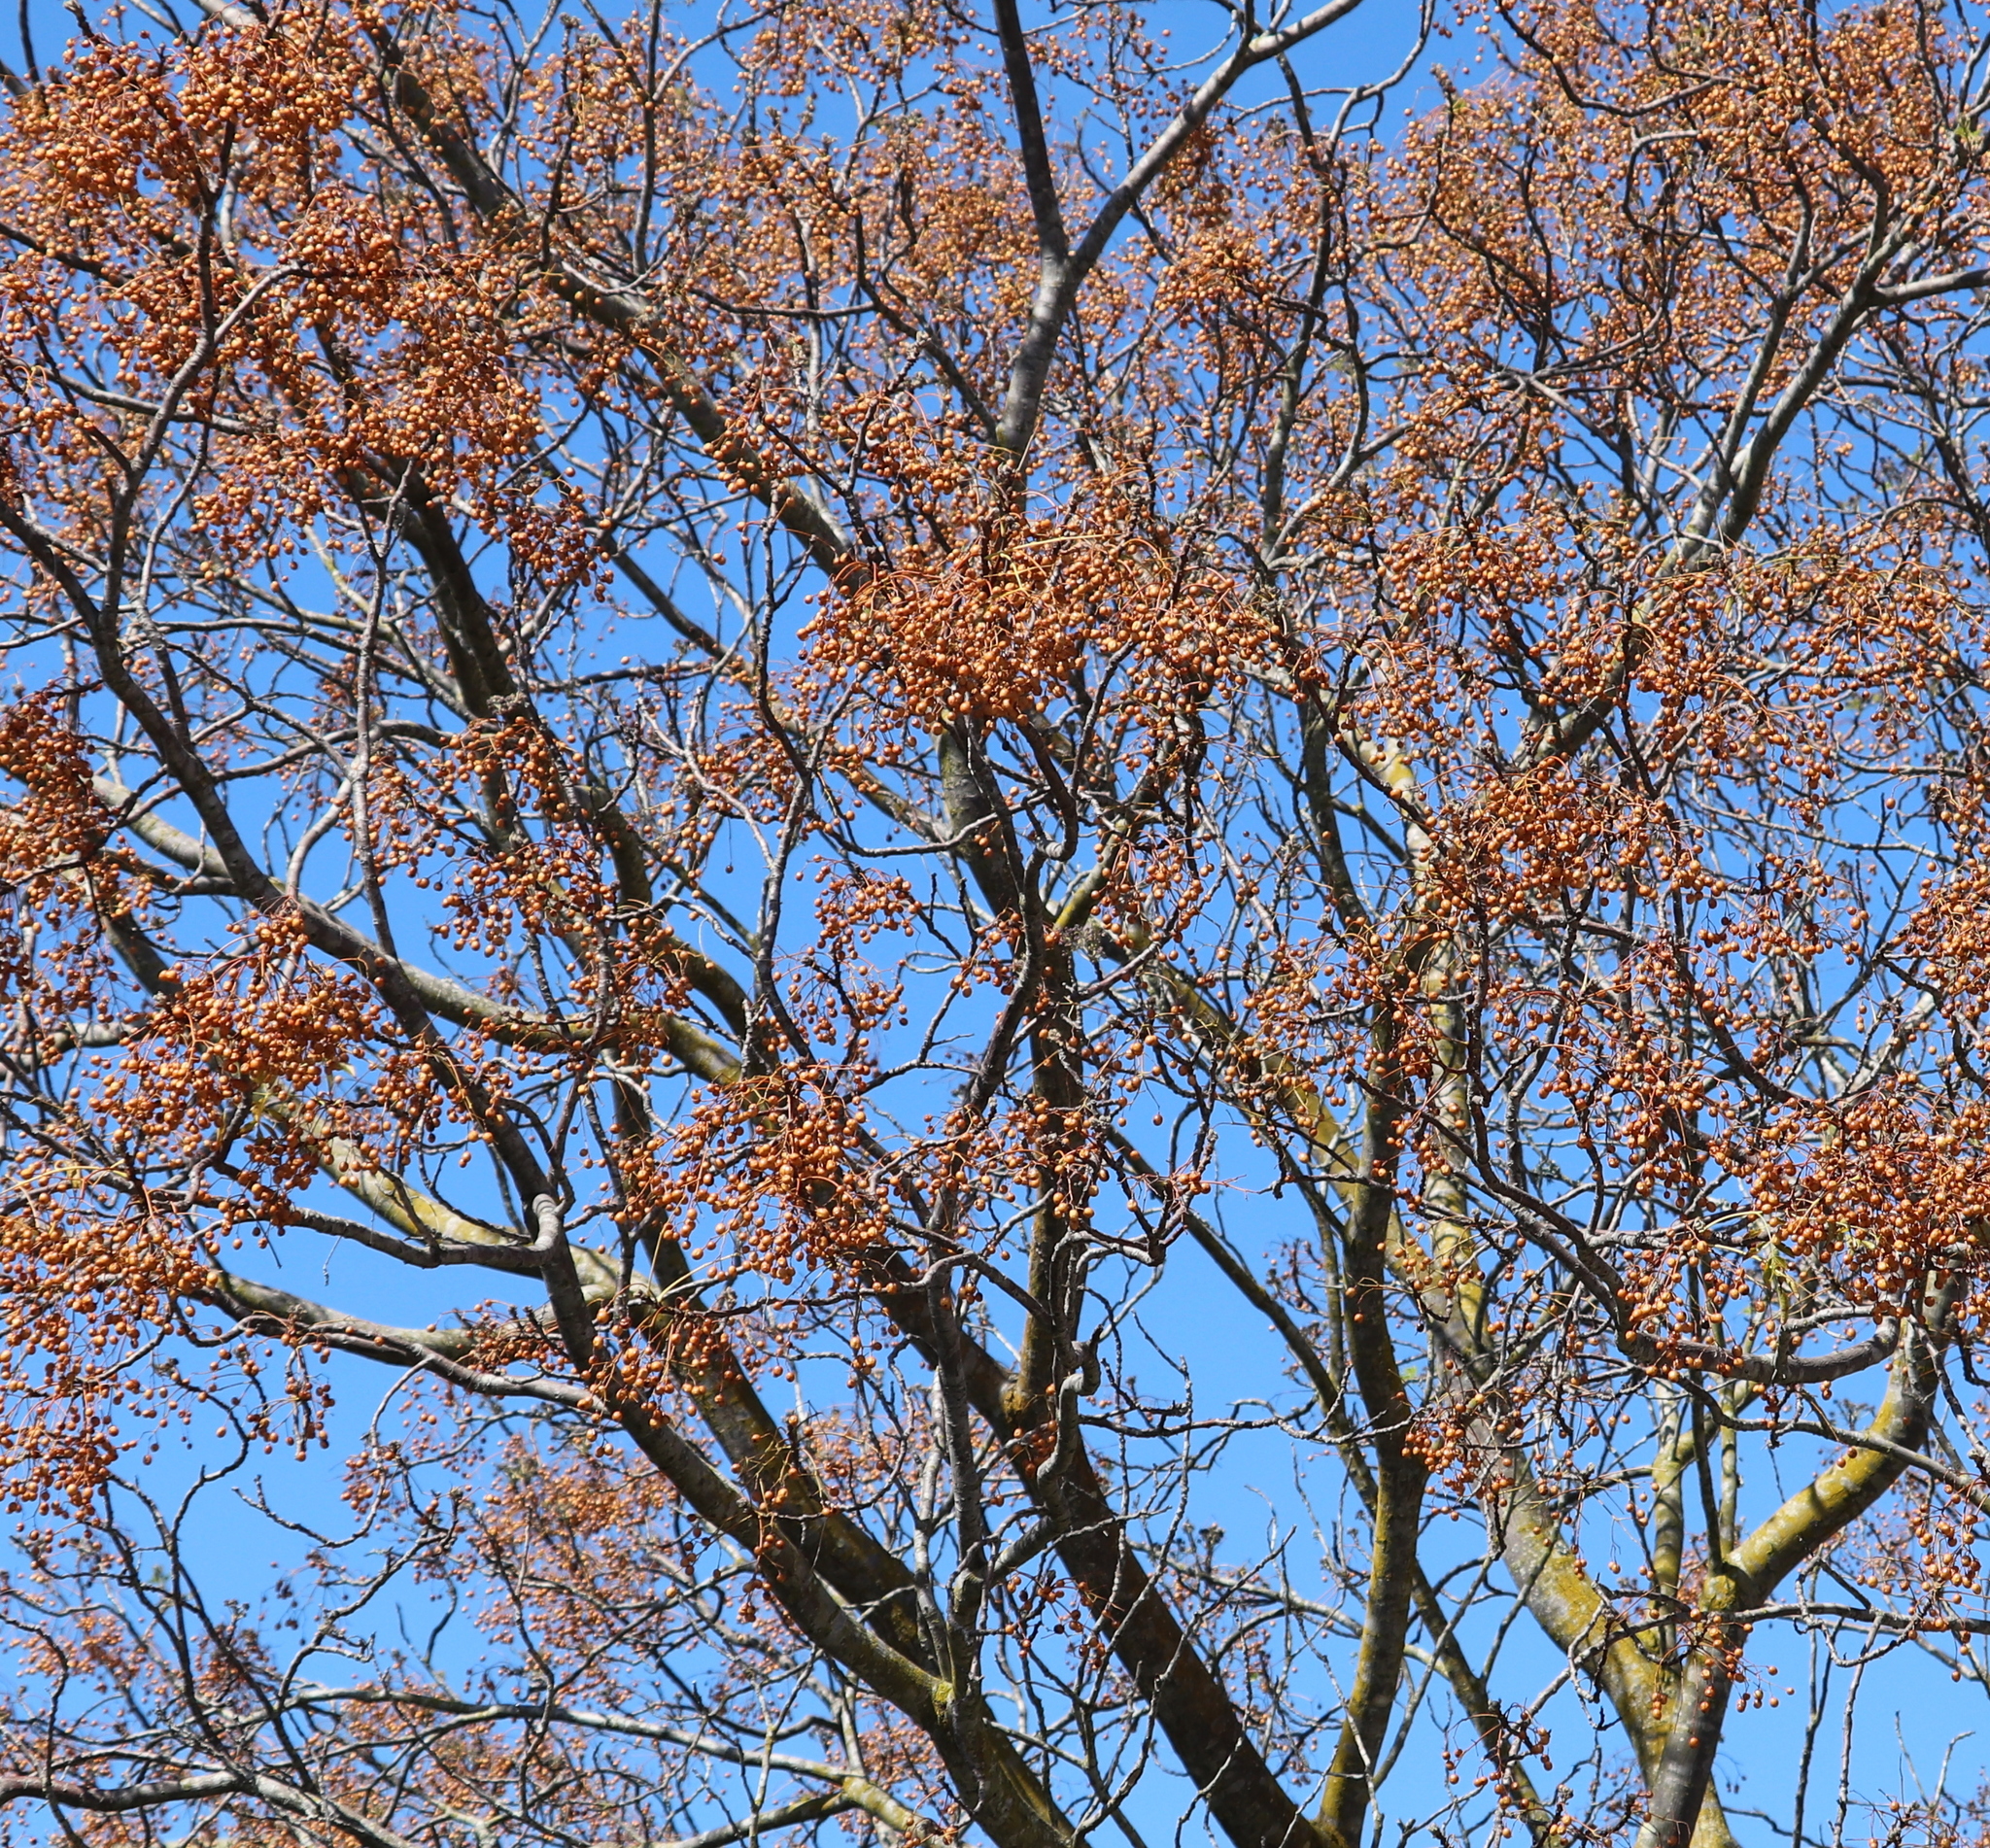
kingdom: Plantae
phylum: Tracheophyta
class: Magnoliopsida
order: Sapindales
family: Meliaceae
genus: Melia
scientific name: Melia azedarach
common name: Chinaberrytree
